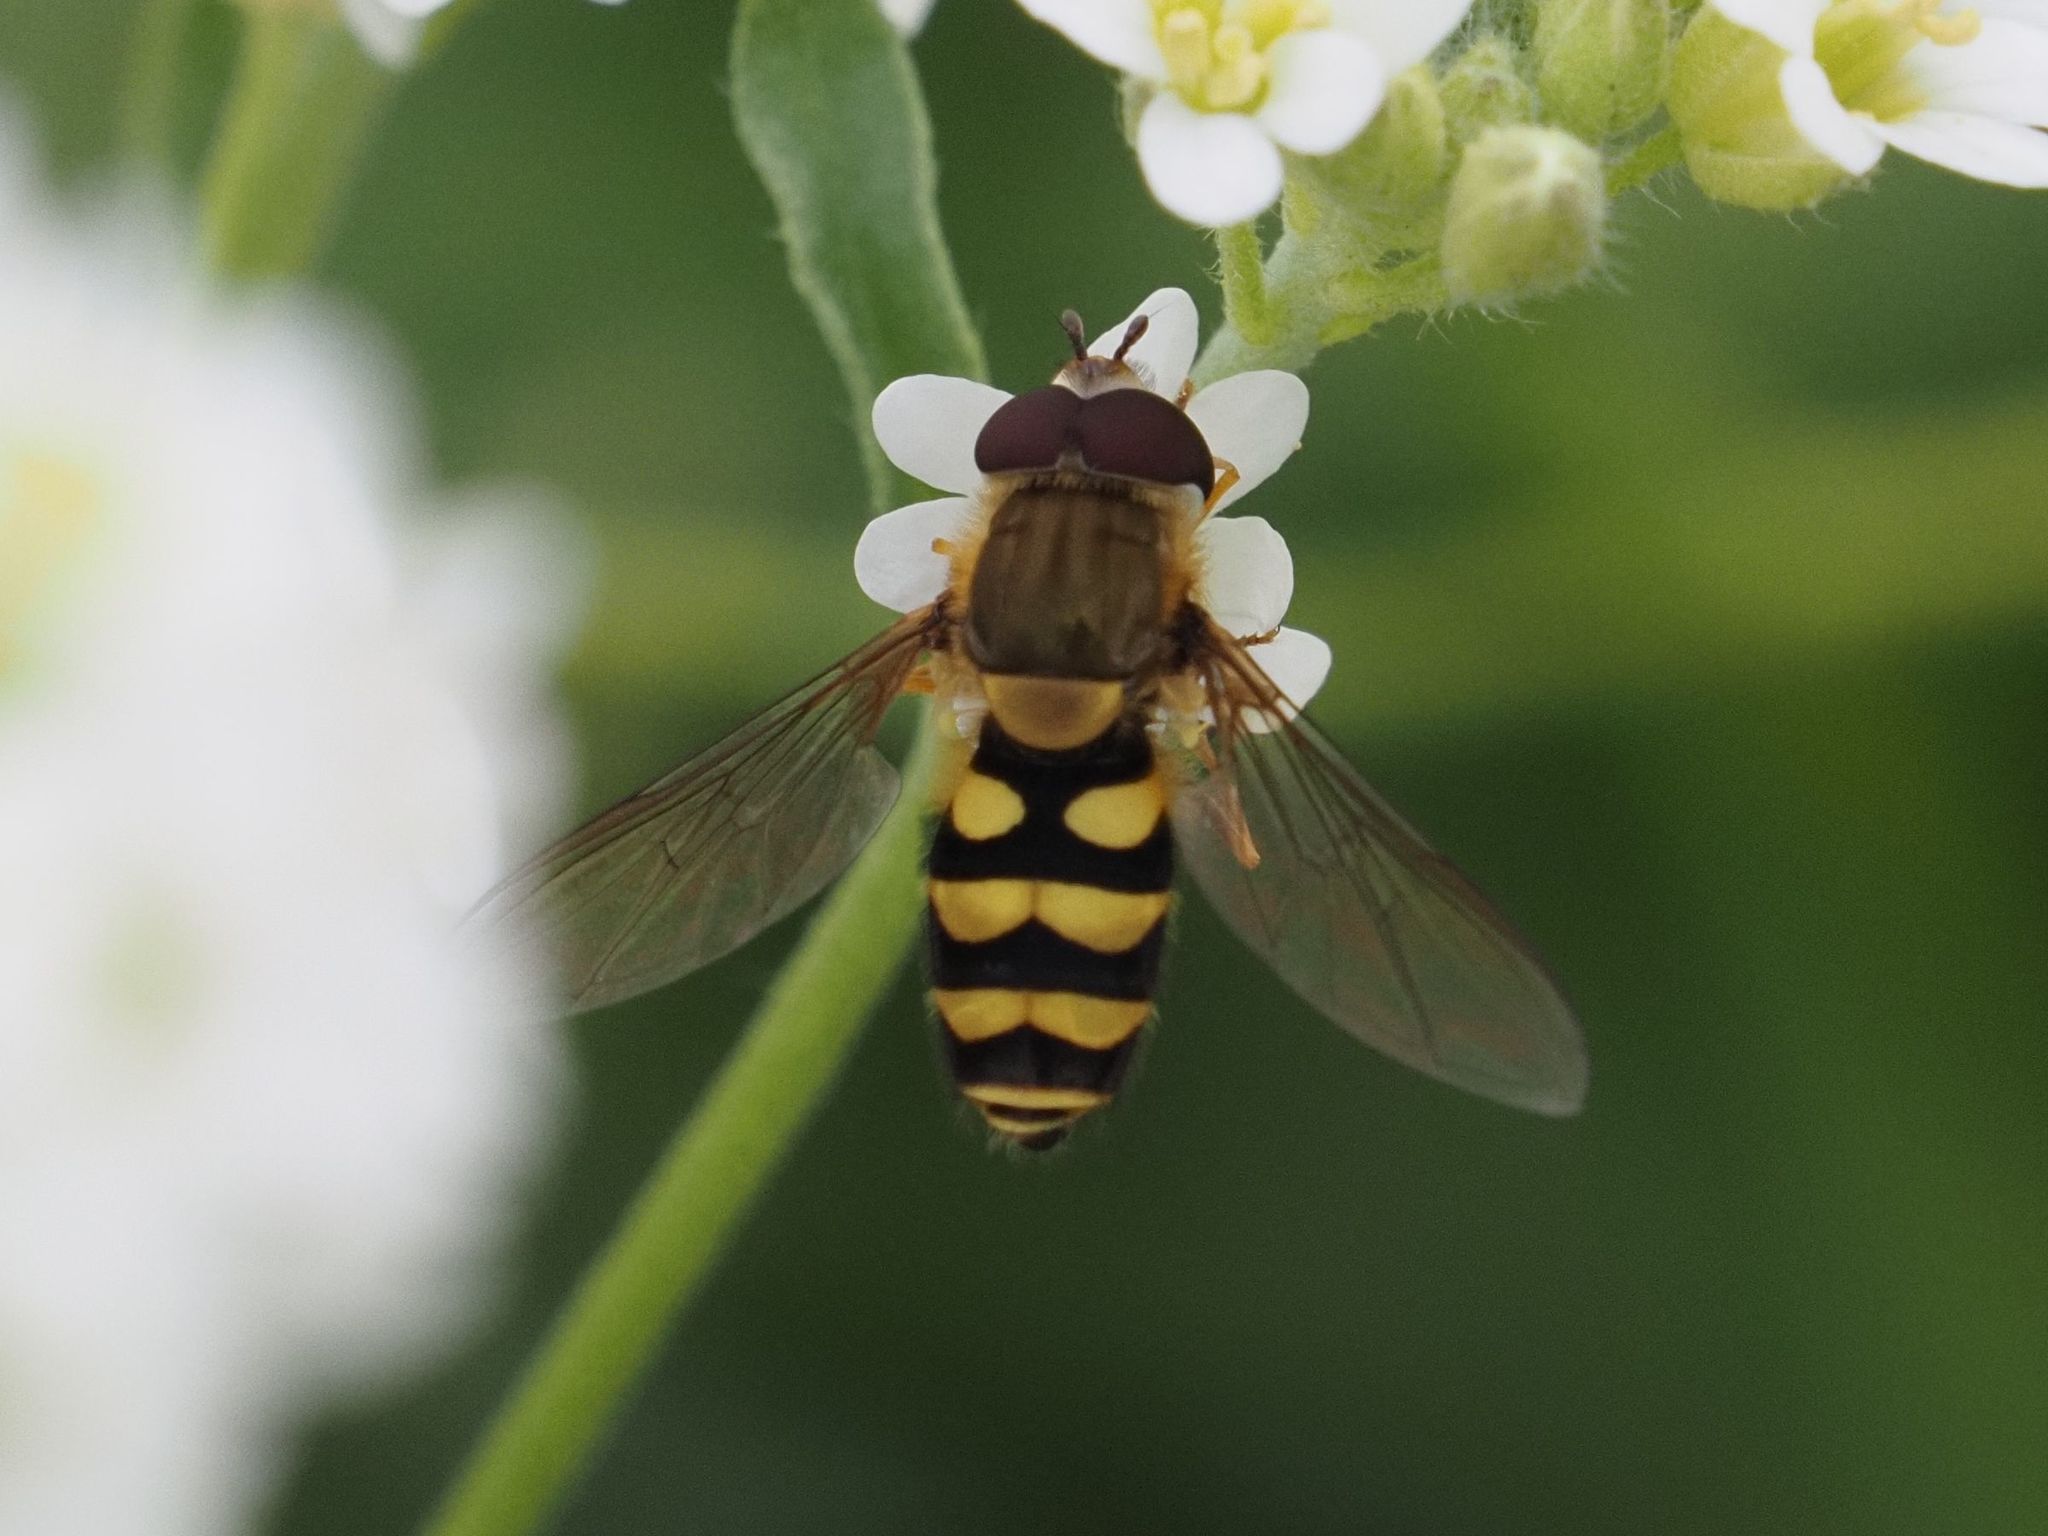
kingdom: Animalia
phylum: Arthropoda
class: Insecta
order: Diptera
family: Syrphidae
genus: Syrphus
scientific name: Syrphus
